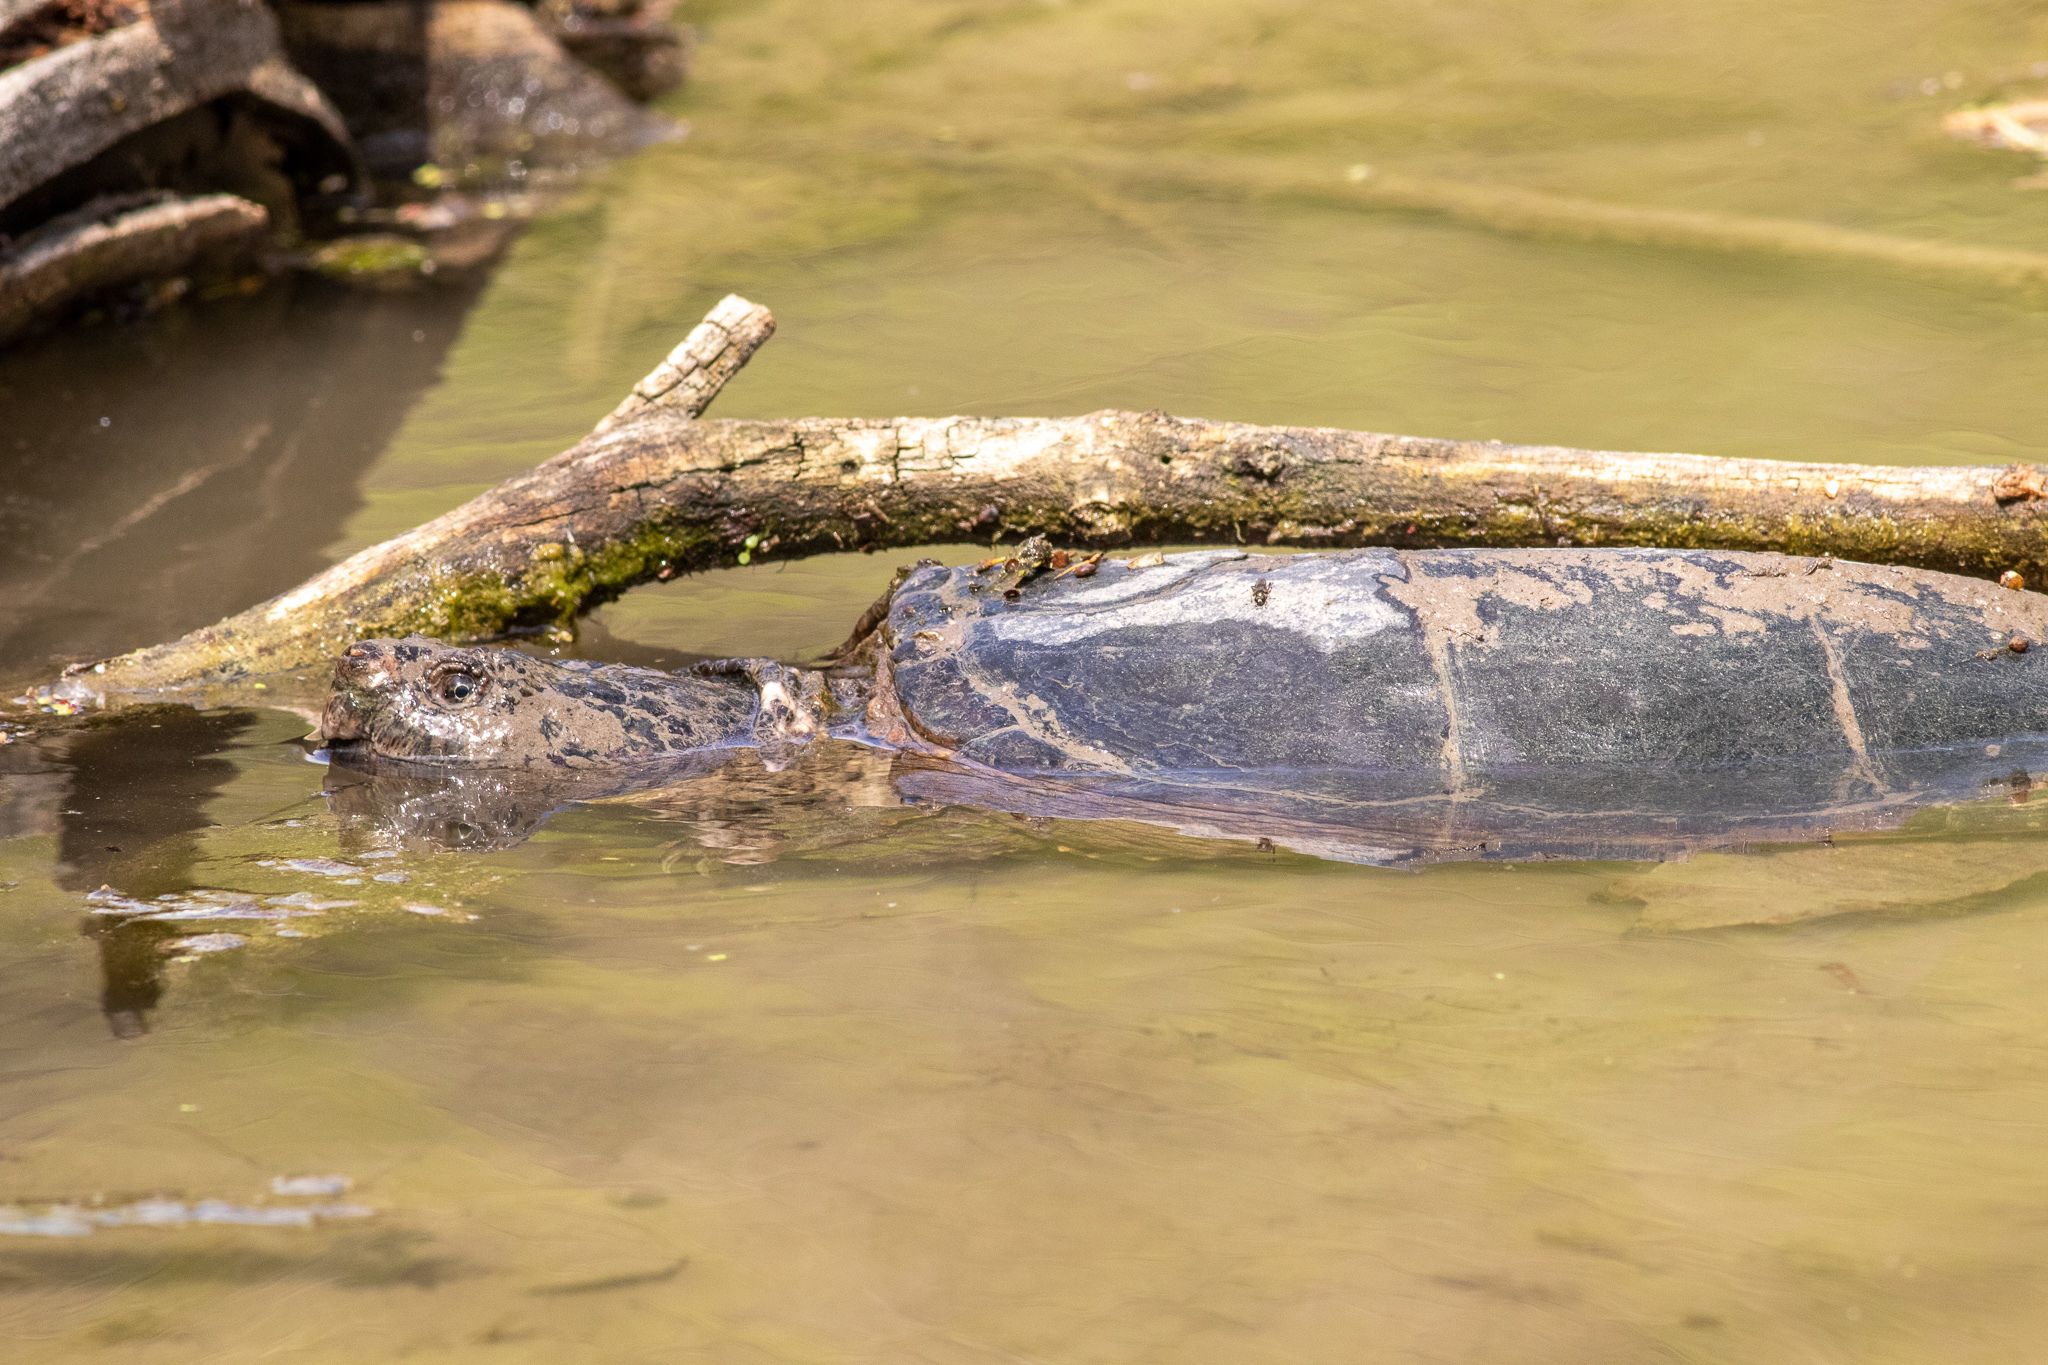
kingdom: Animalia
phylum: Chordata
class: Testudines
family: Chelydridae
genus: Chelydra
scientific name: Chelydra serpentina
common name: Common snapping turtle
